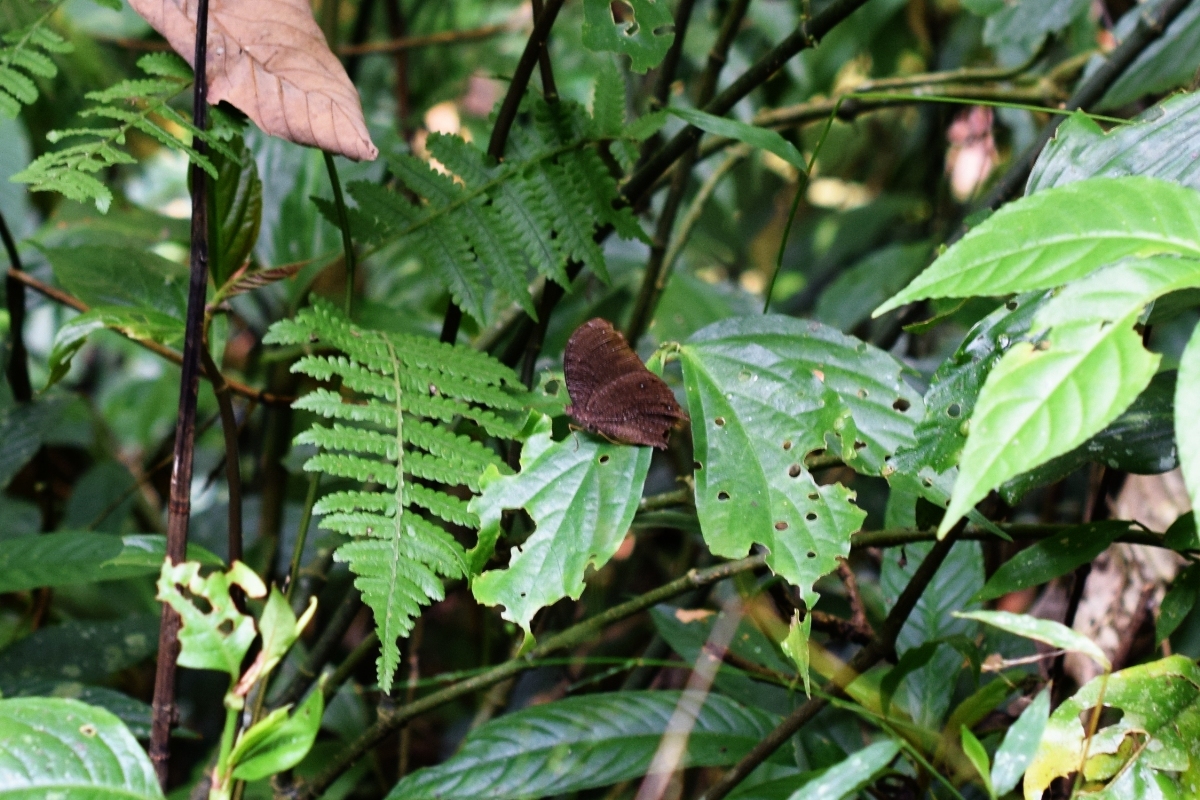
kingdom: Animalia
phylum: Arthropoda
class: Insecta
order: Lepidoptera
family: Nymphalidae
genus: Melanitis
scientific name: Melanitis phedima
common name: Dark evening brown
